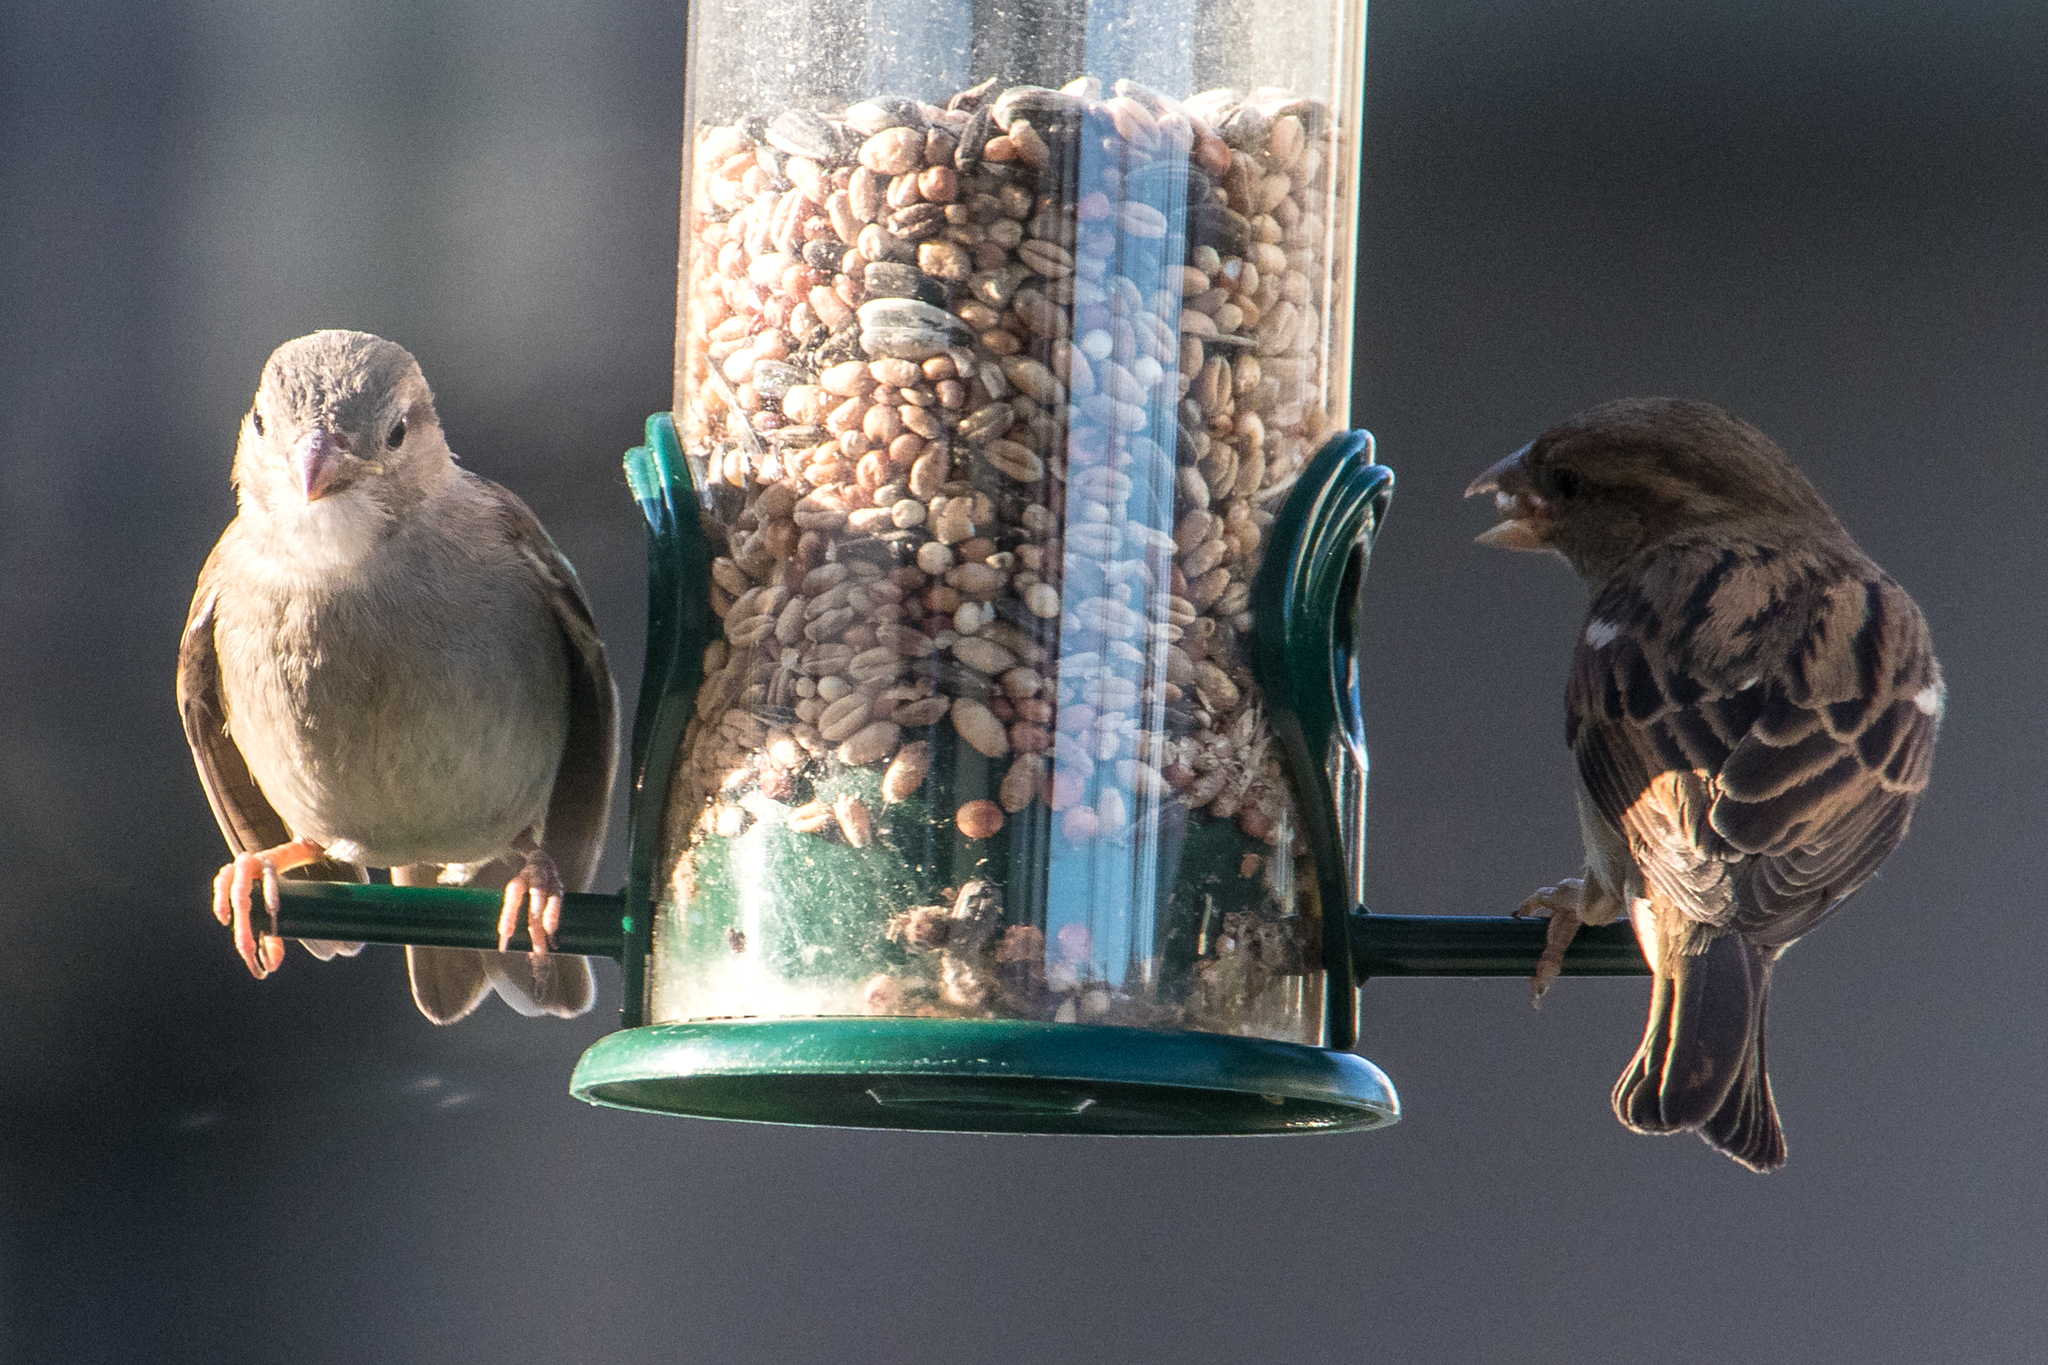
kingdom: Animalia
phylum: Chordata
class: Aves
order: Passeriformes
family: Passeridae
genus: Passer
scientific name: Passer domesticus
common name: House sparrow
